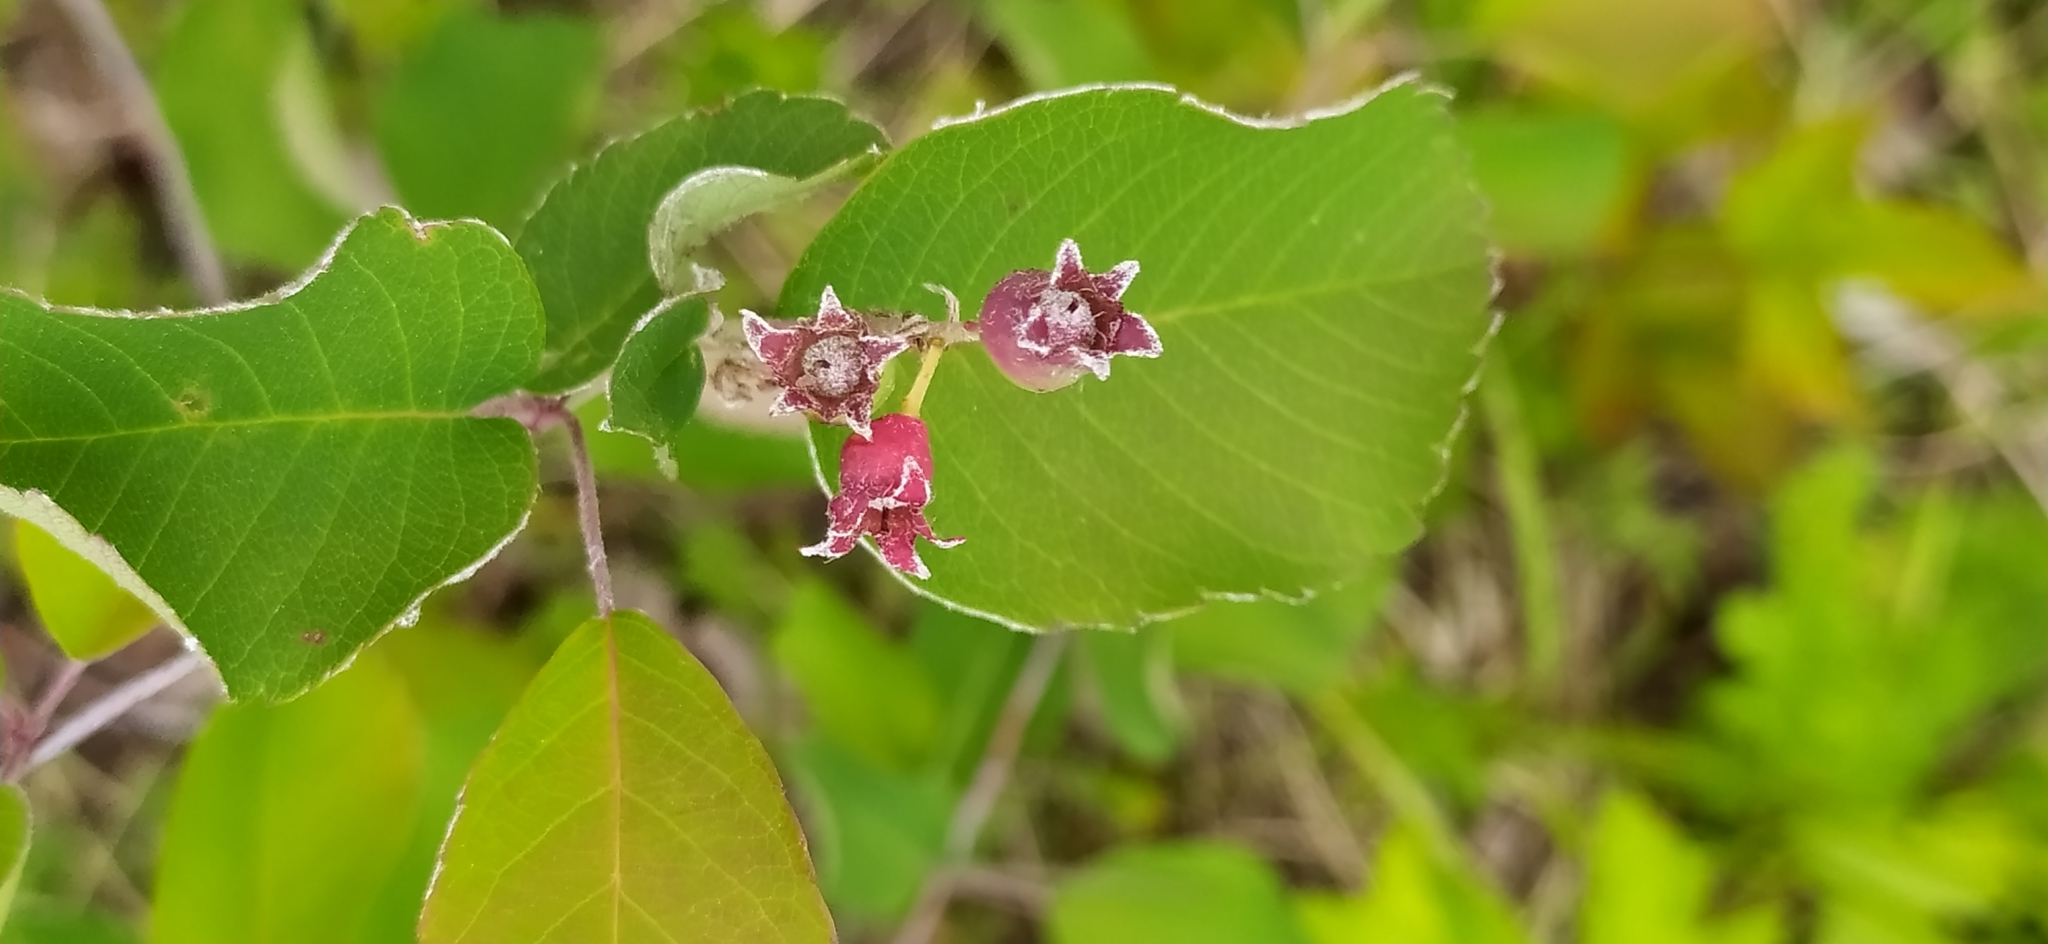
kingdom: Plantae
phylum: Tracheophyta
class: Magnoliopsida
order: Rosales
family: Rosaceae
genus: Amelanchier
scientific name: Amelanchier alnifolia
